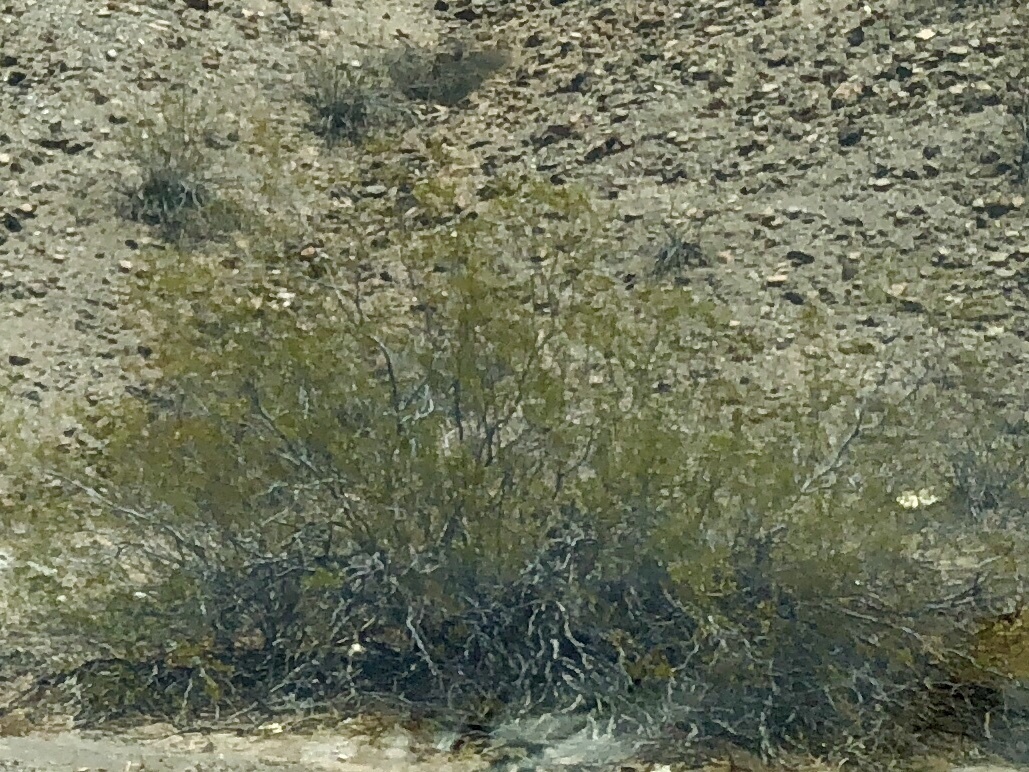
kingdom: Plantae
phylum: Tracheophyta
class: Magnoliopsida
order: Zygophyllales
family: Zygophyllaceae
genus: Larrea
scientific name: Larrea tridentata
